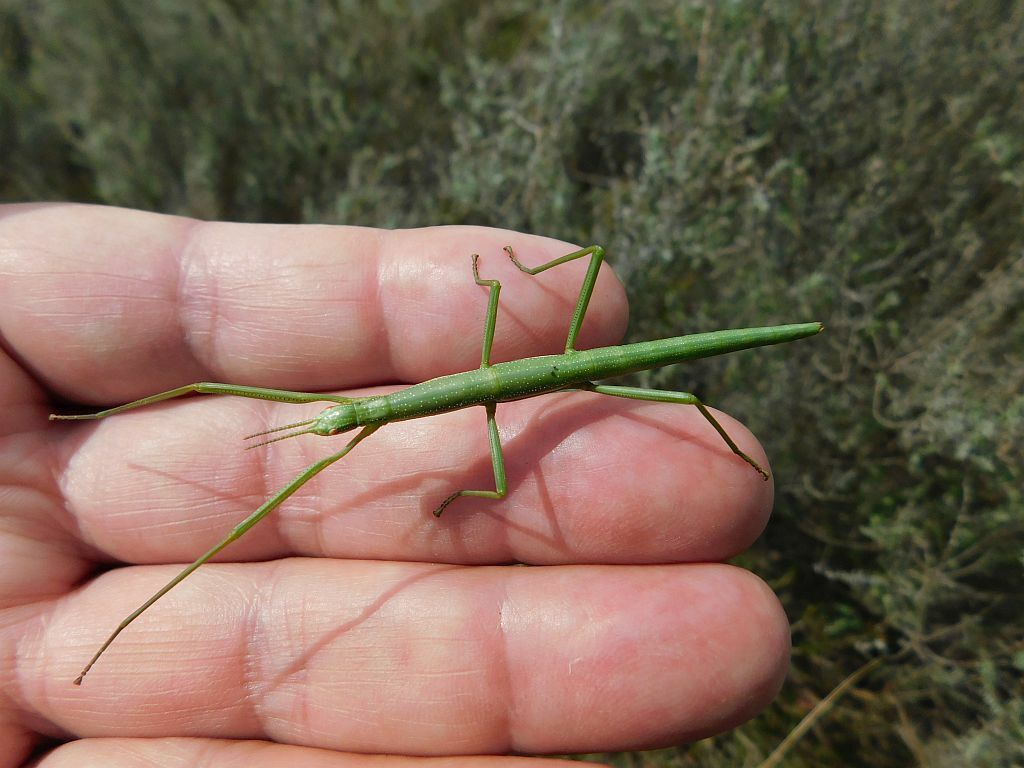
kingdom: Animalia
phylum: Arthropoda
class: Insecta
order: Phasmida
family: Bacillidae
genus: Phalces
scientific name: Phalces brevis
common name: Cape stick insect
